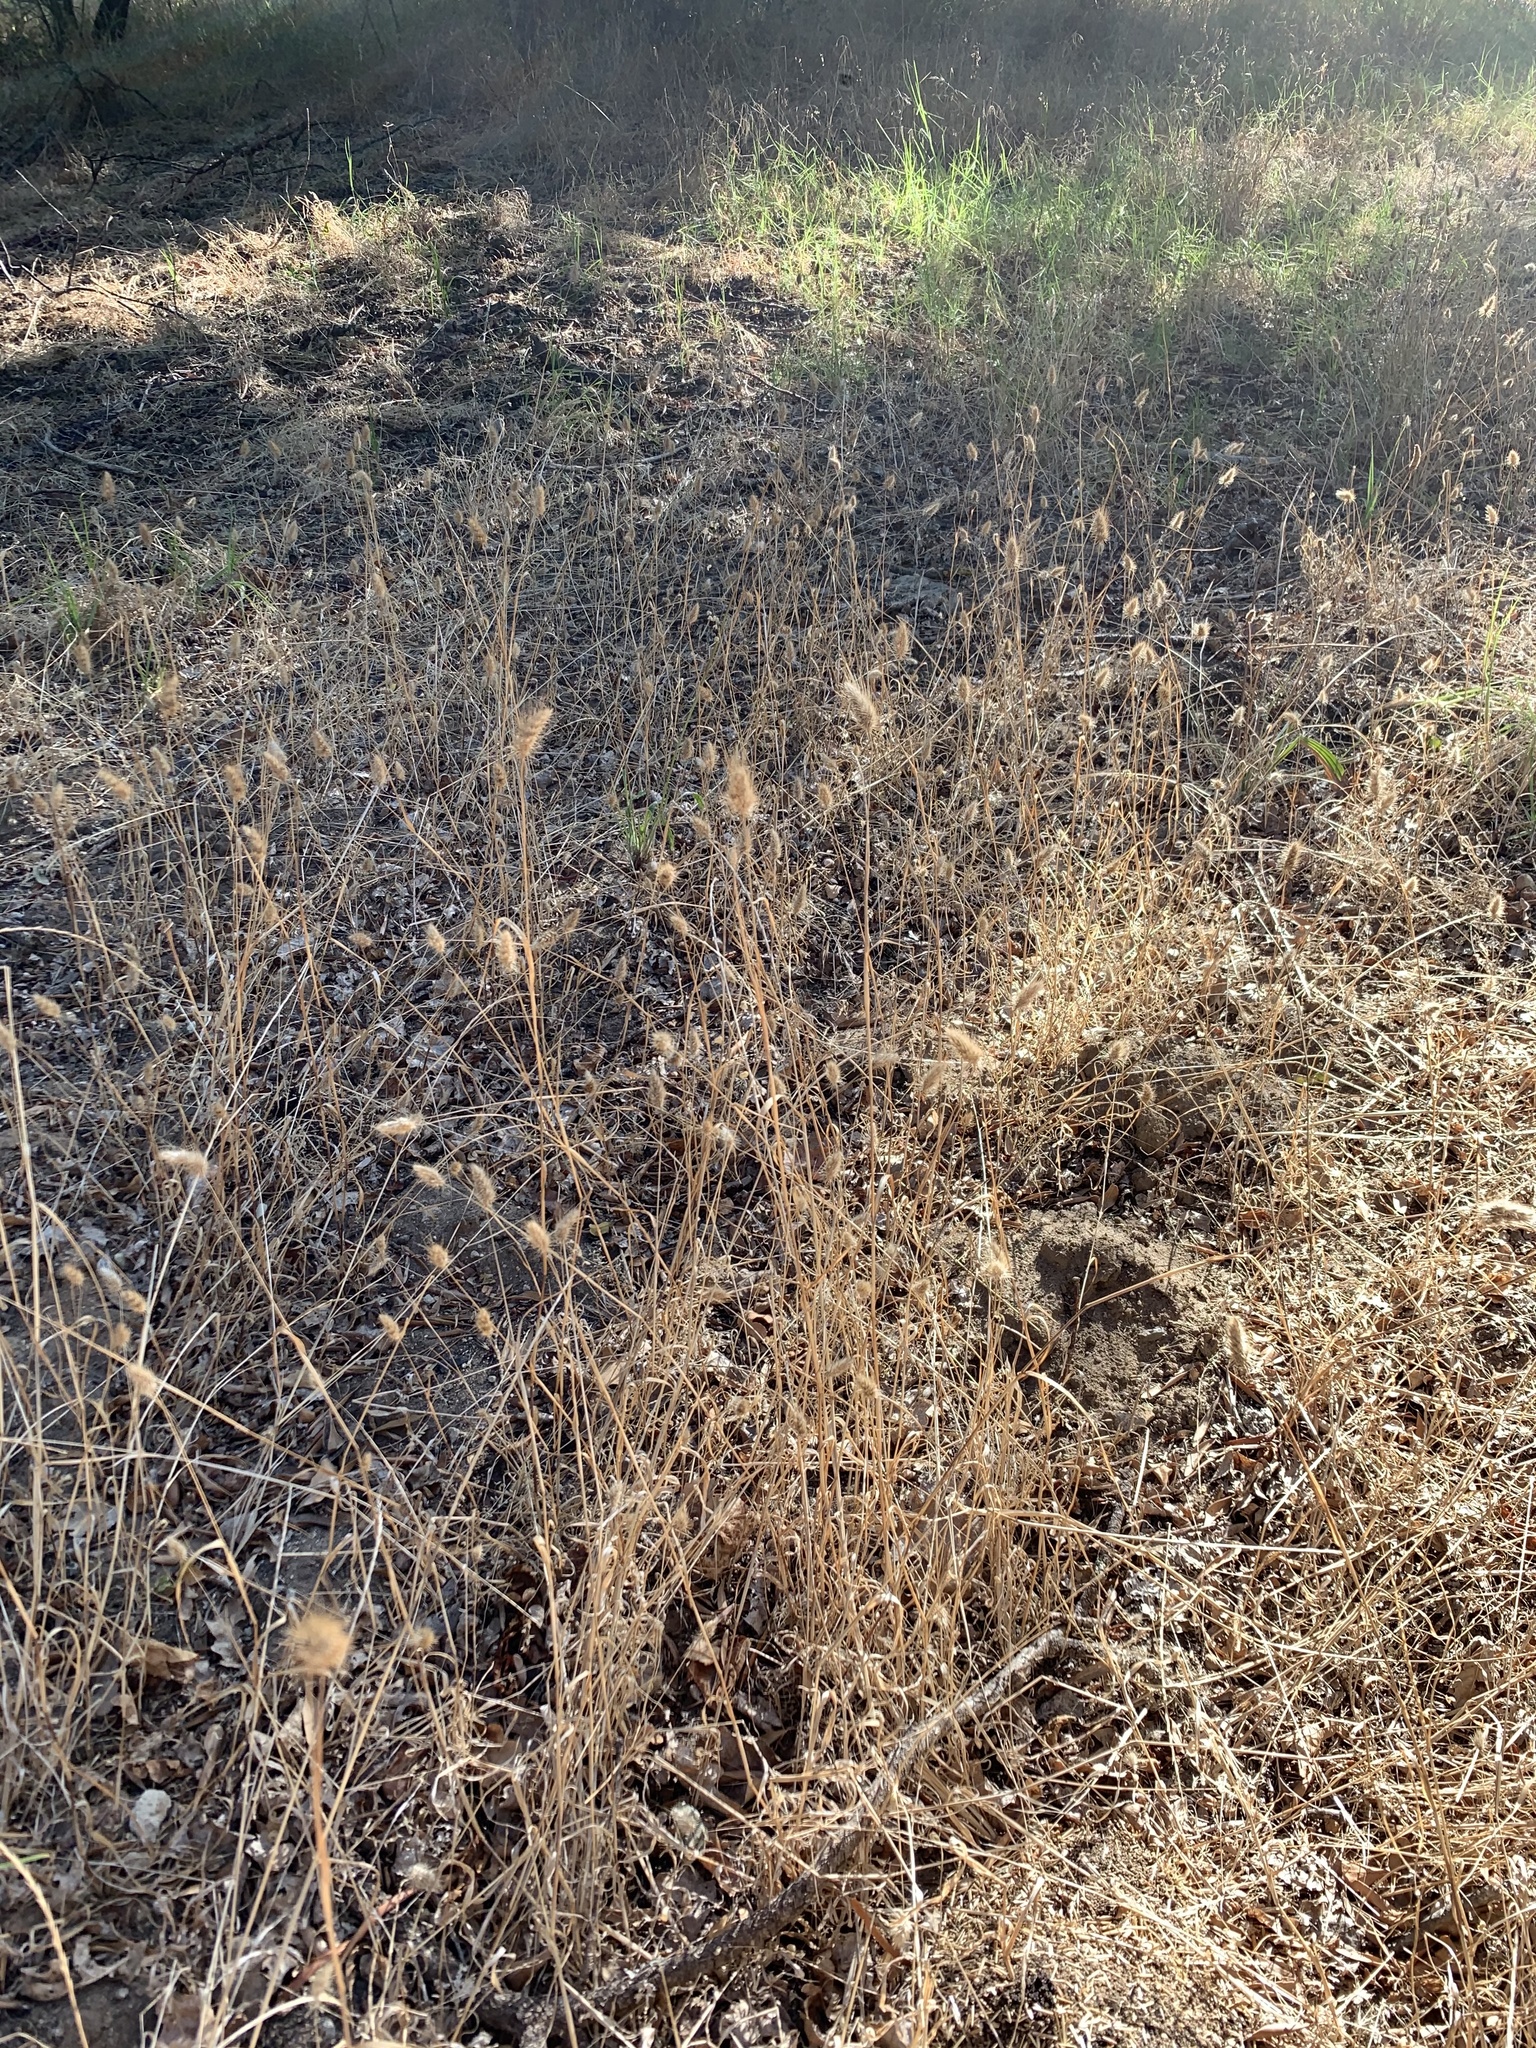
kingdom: Plantae
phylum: Tracheophyta
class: Liliopsida
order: Poales
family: Poaceae
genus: Cynosurus
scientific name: Cynosurus echinatus
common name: Rough dog's-tail
